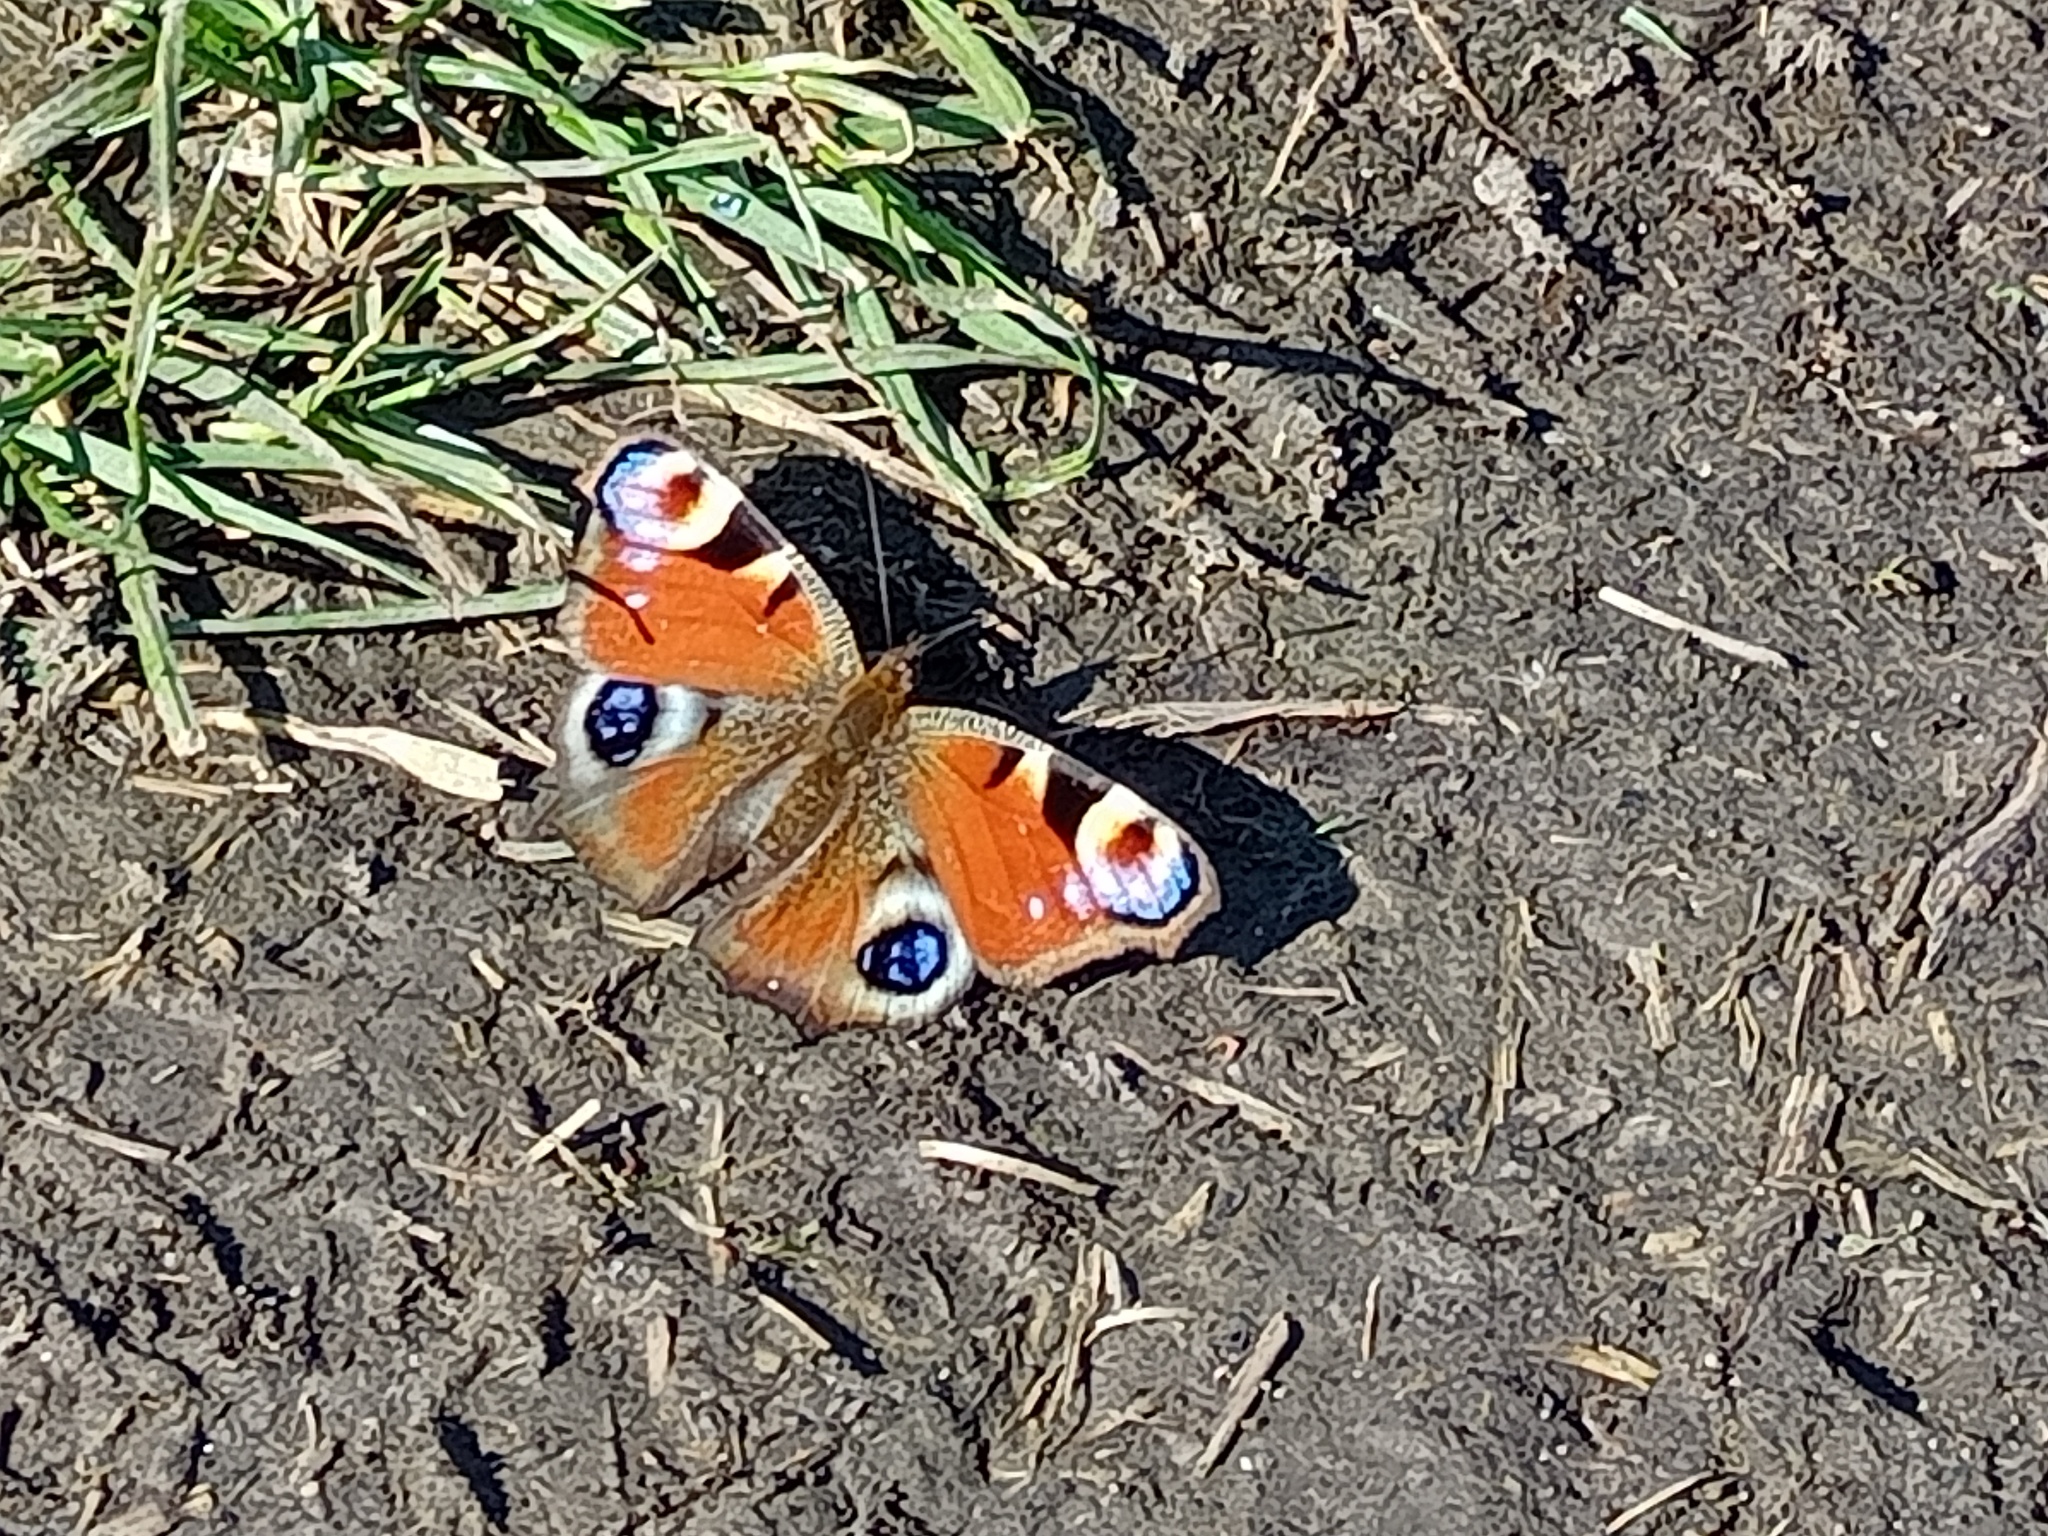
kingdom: Animalia
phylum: Arthropoda
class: Insecta
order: Lepidoptera
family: Nymphalidae
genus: Aglais
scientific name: Aglais io
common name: Peacock
